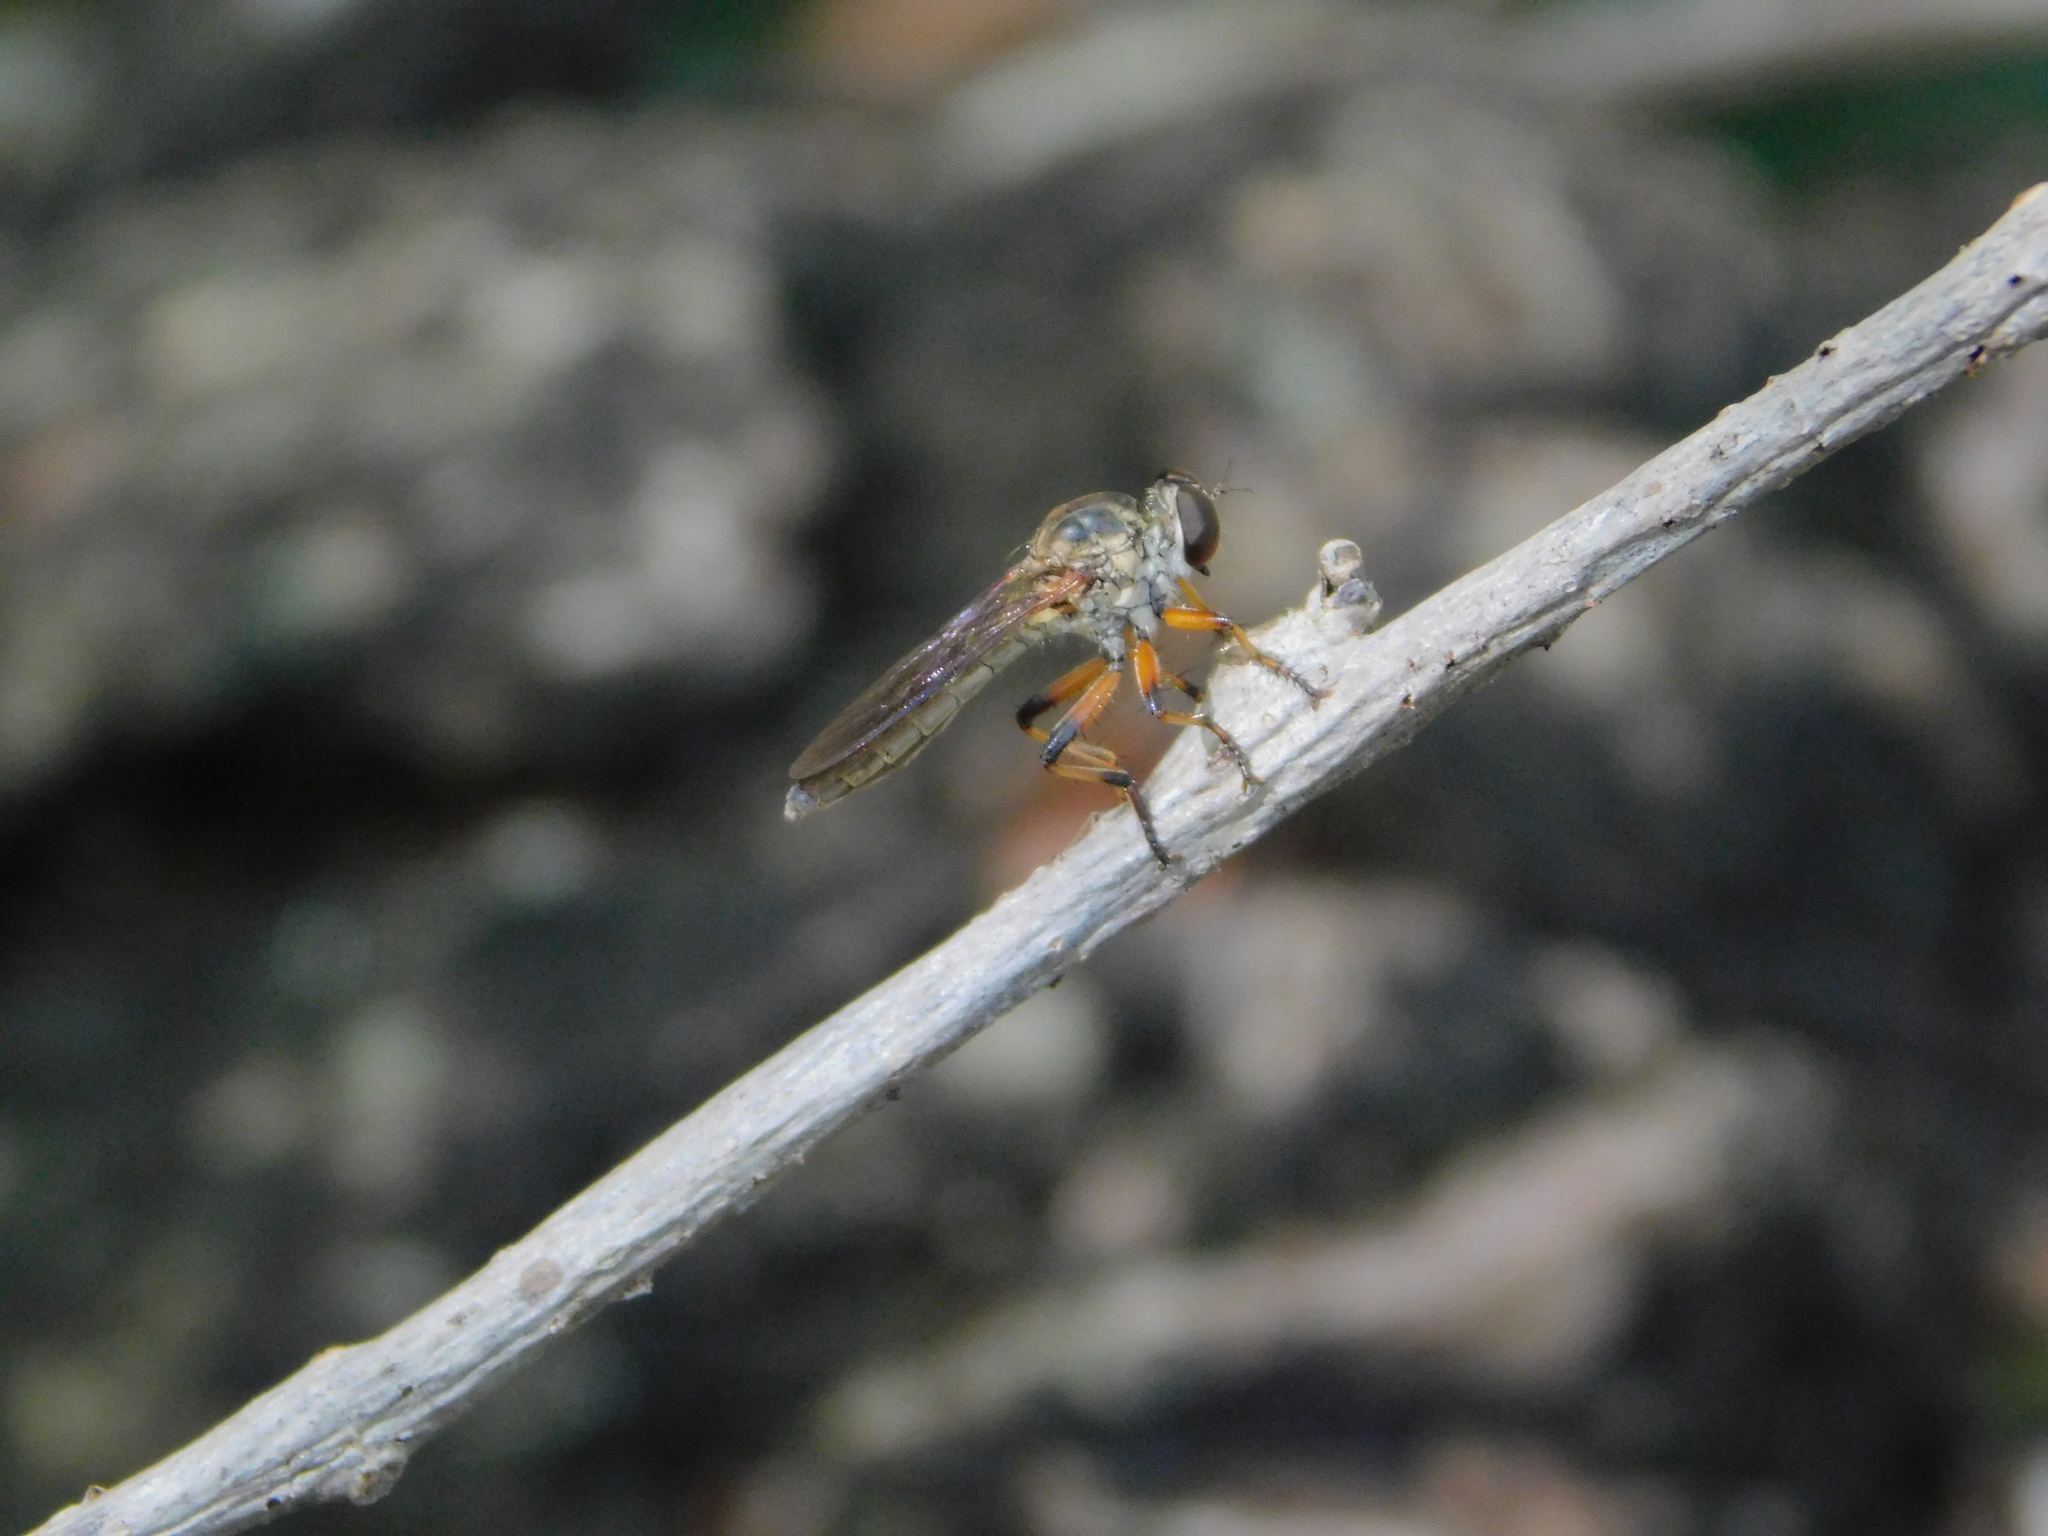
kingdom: Animalia
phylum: Arthropoda
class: Insecta
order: Diptera
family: Asilidae
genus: Ommatius
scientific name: Ommatius floridensis
